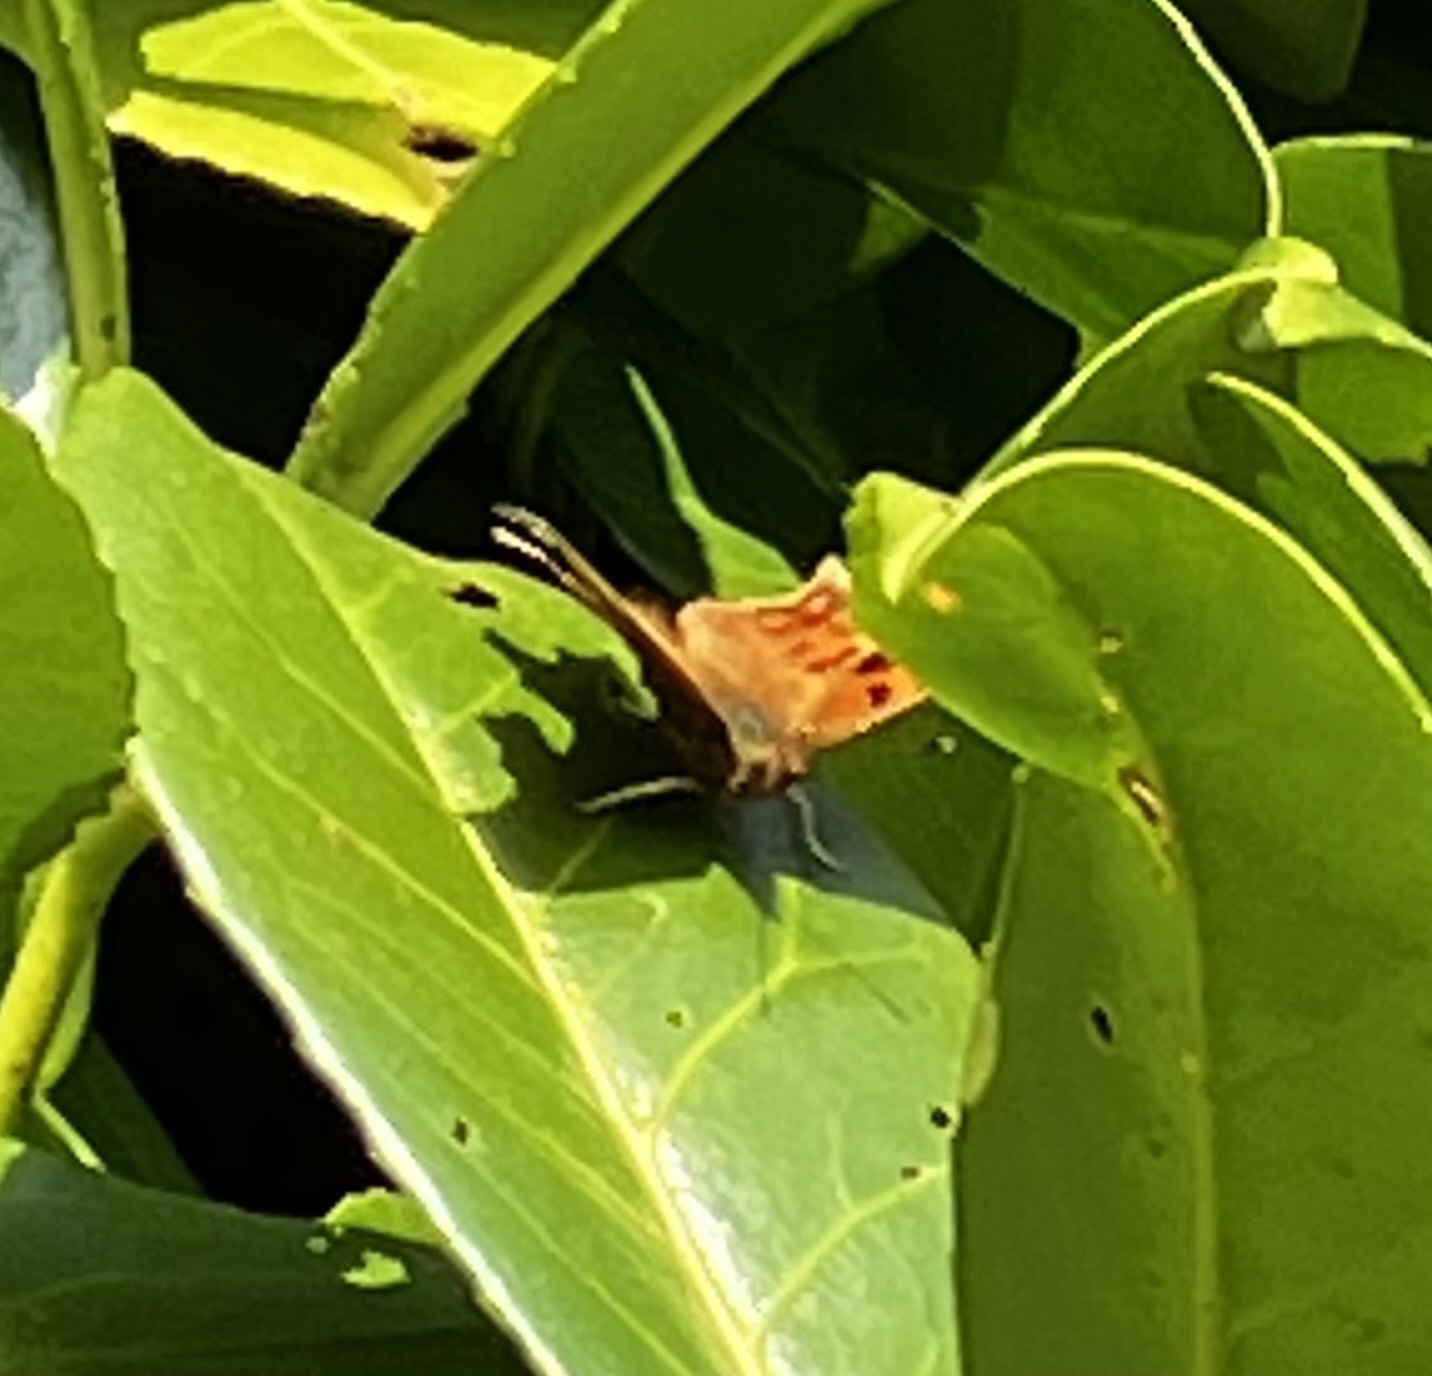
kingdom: Animalia
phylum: Arthropoda
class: Insecta
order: Lepidoptera
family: Nymphalidae
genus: Polygonia
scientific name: Polygonia c-album
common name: Comma
